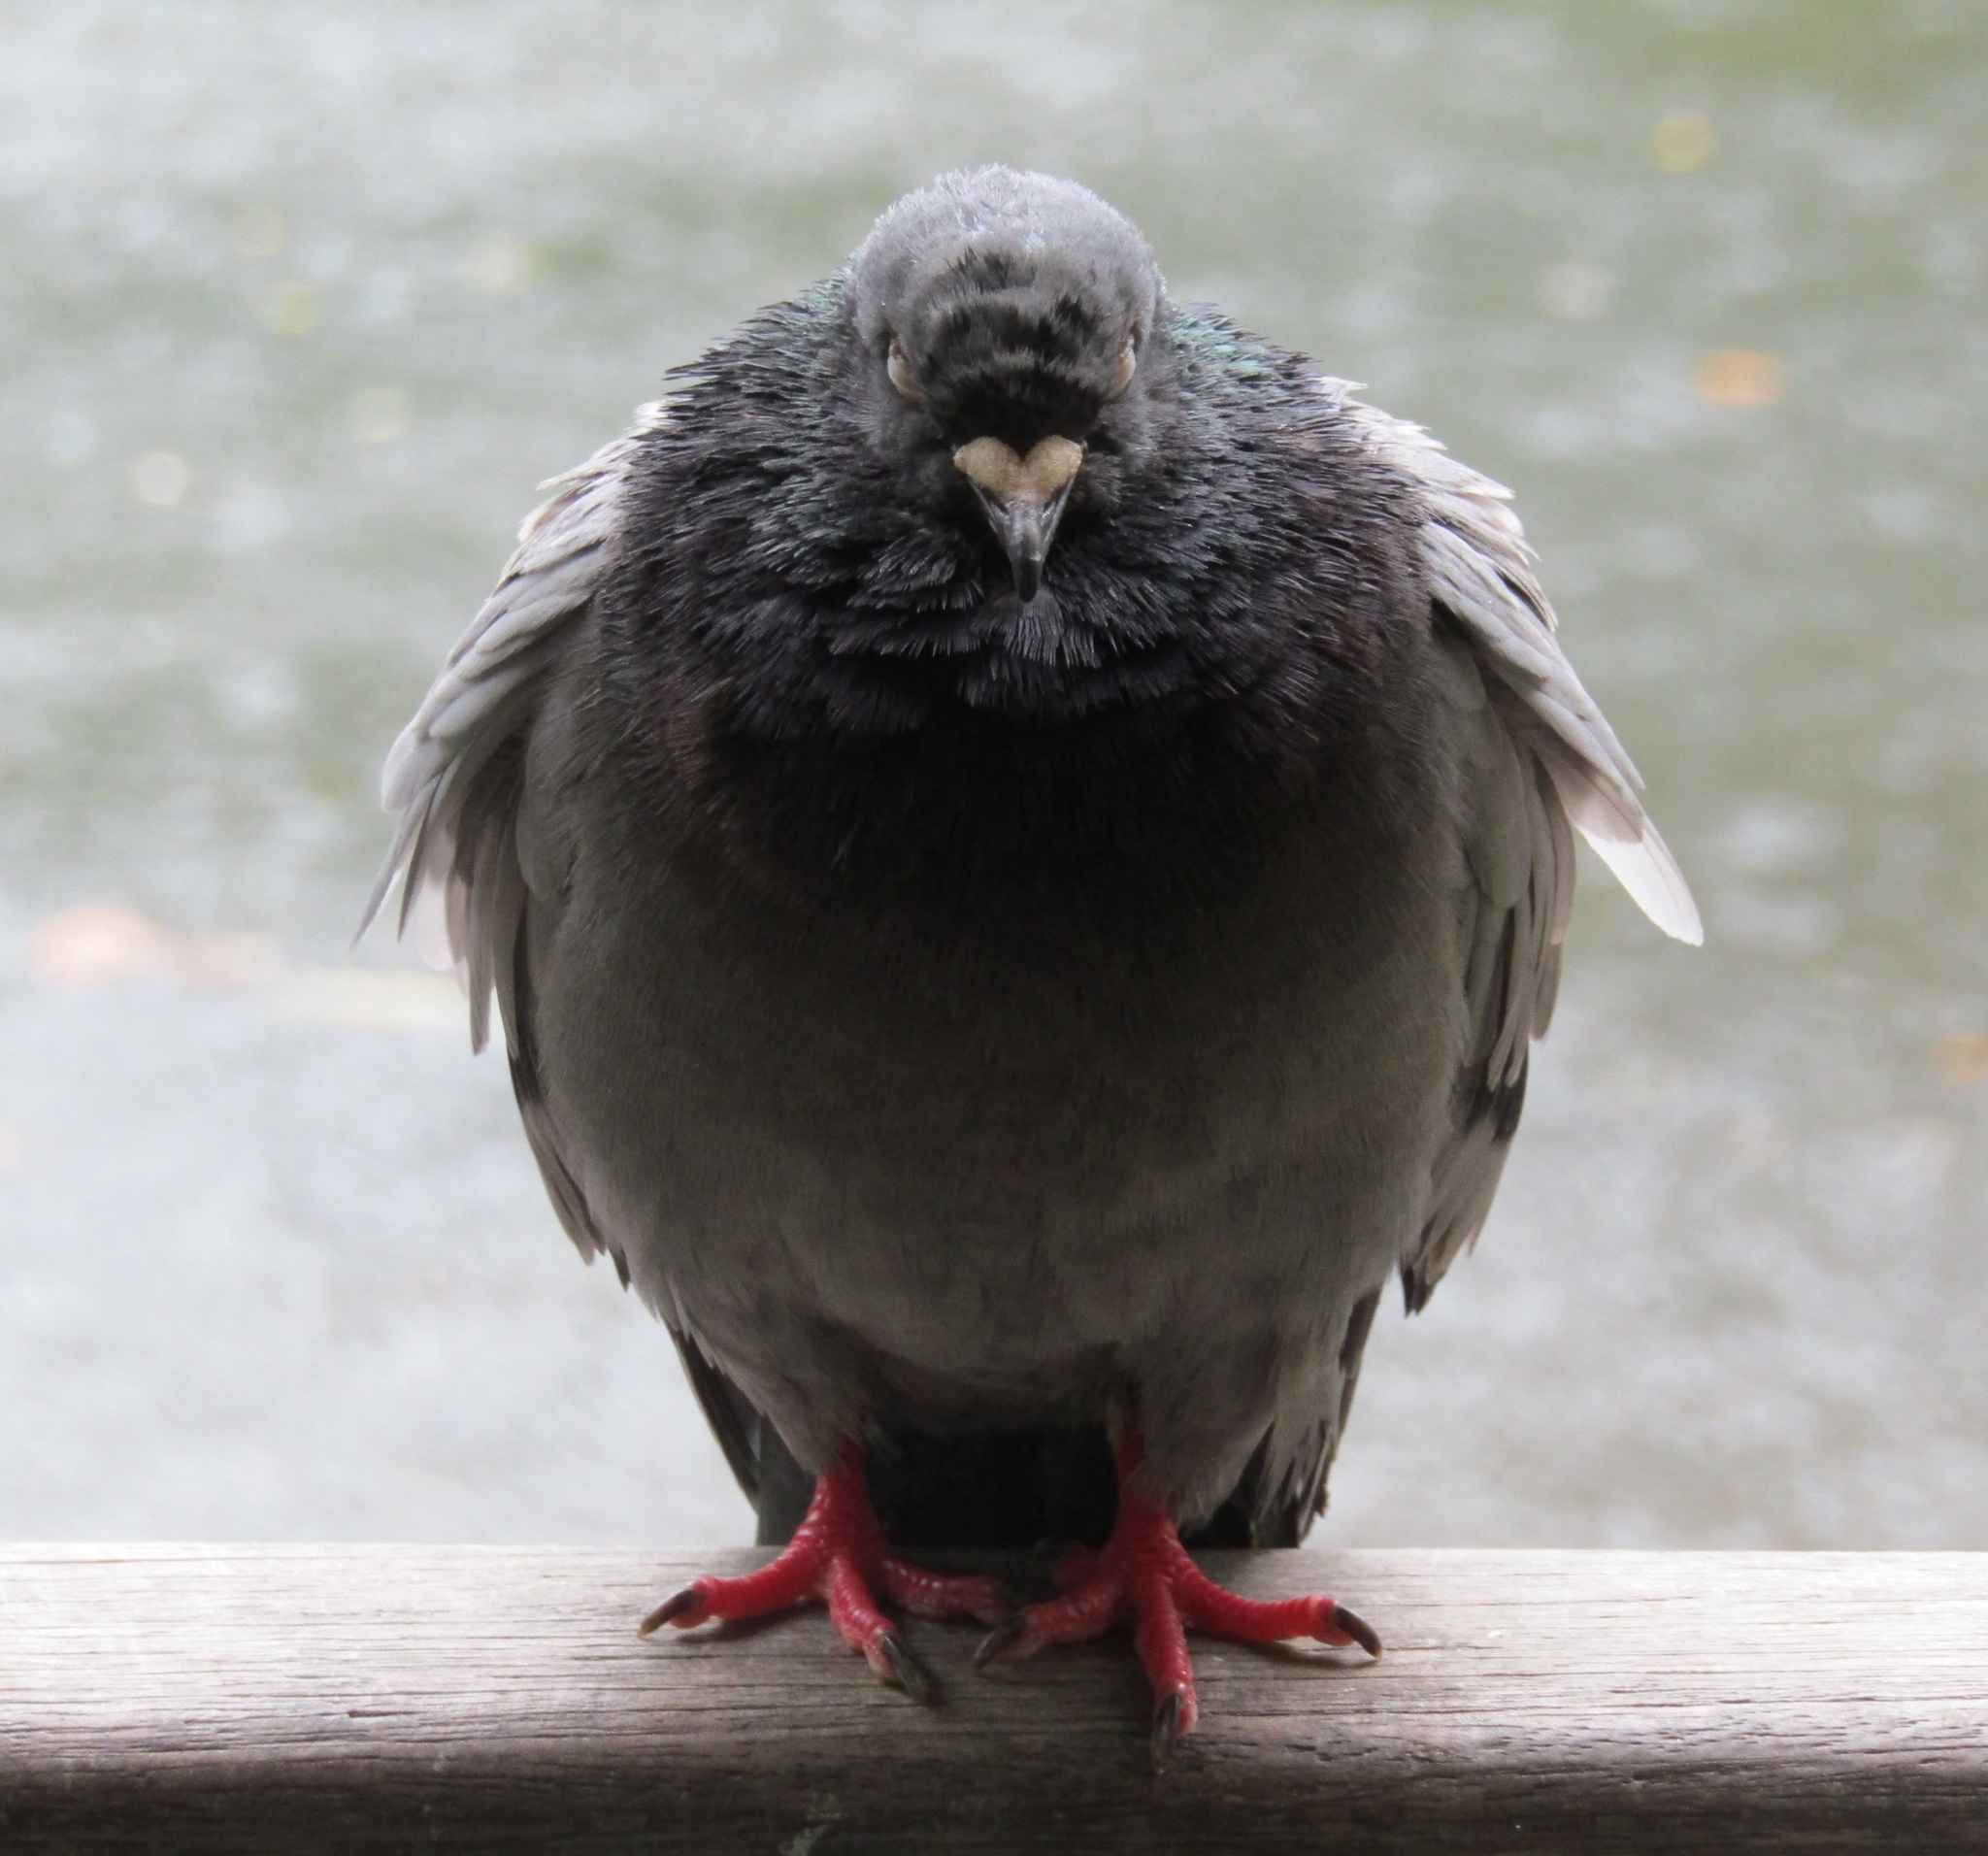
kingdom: Animalia
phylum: Chordata
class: Aves
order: Columbiformes
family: Columbidae
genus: Columba
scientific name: Columba livia
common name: Rock pigeon
